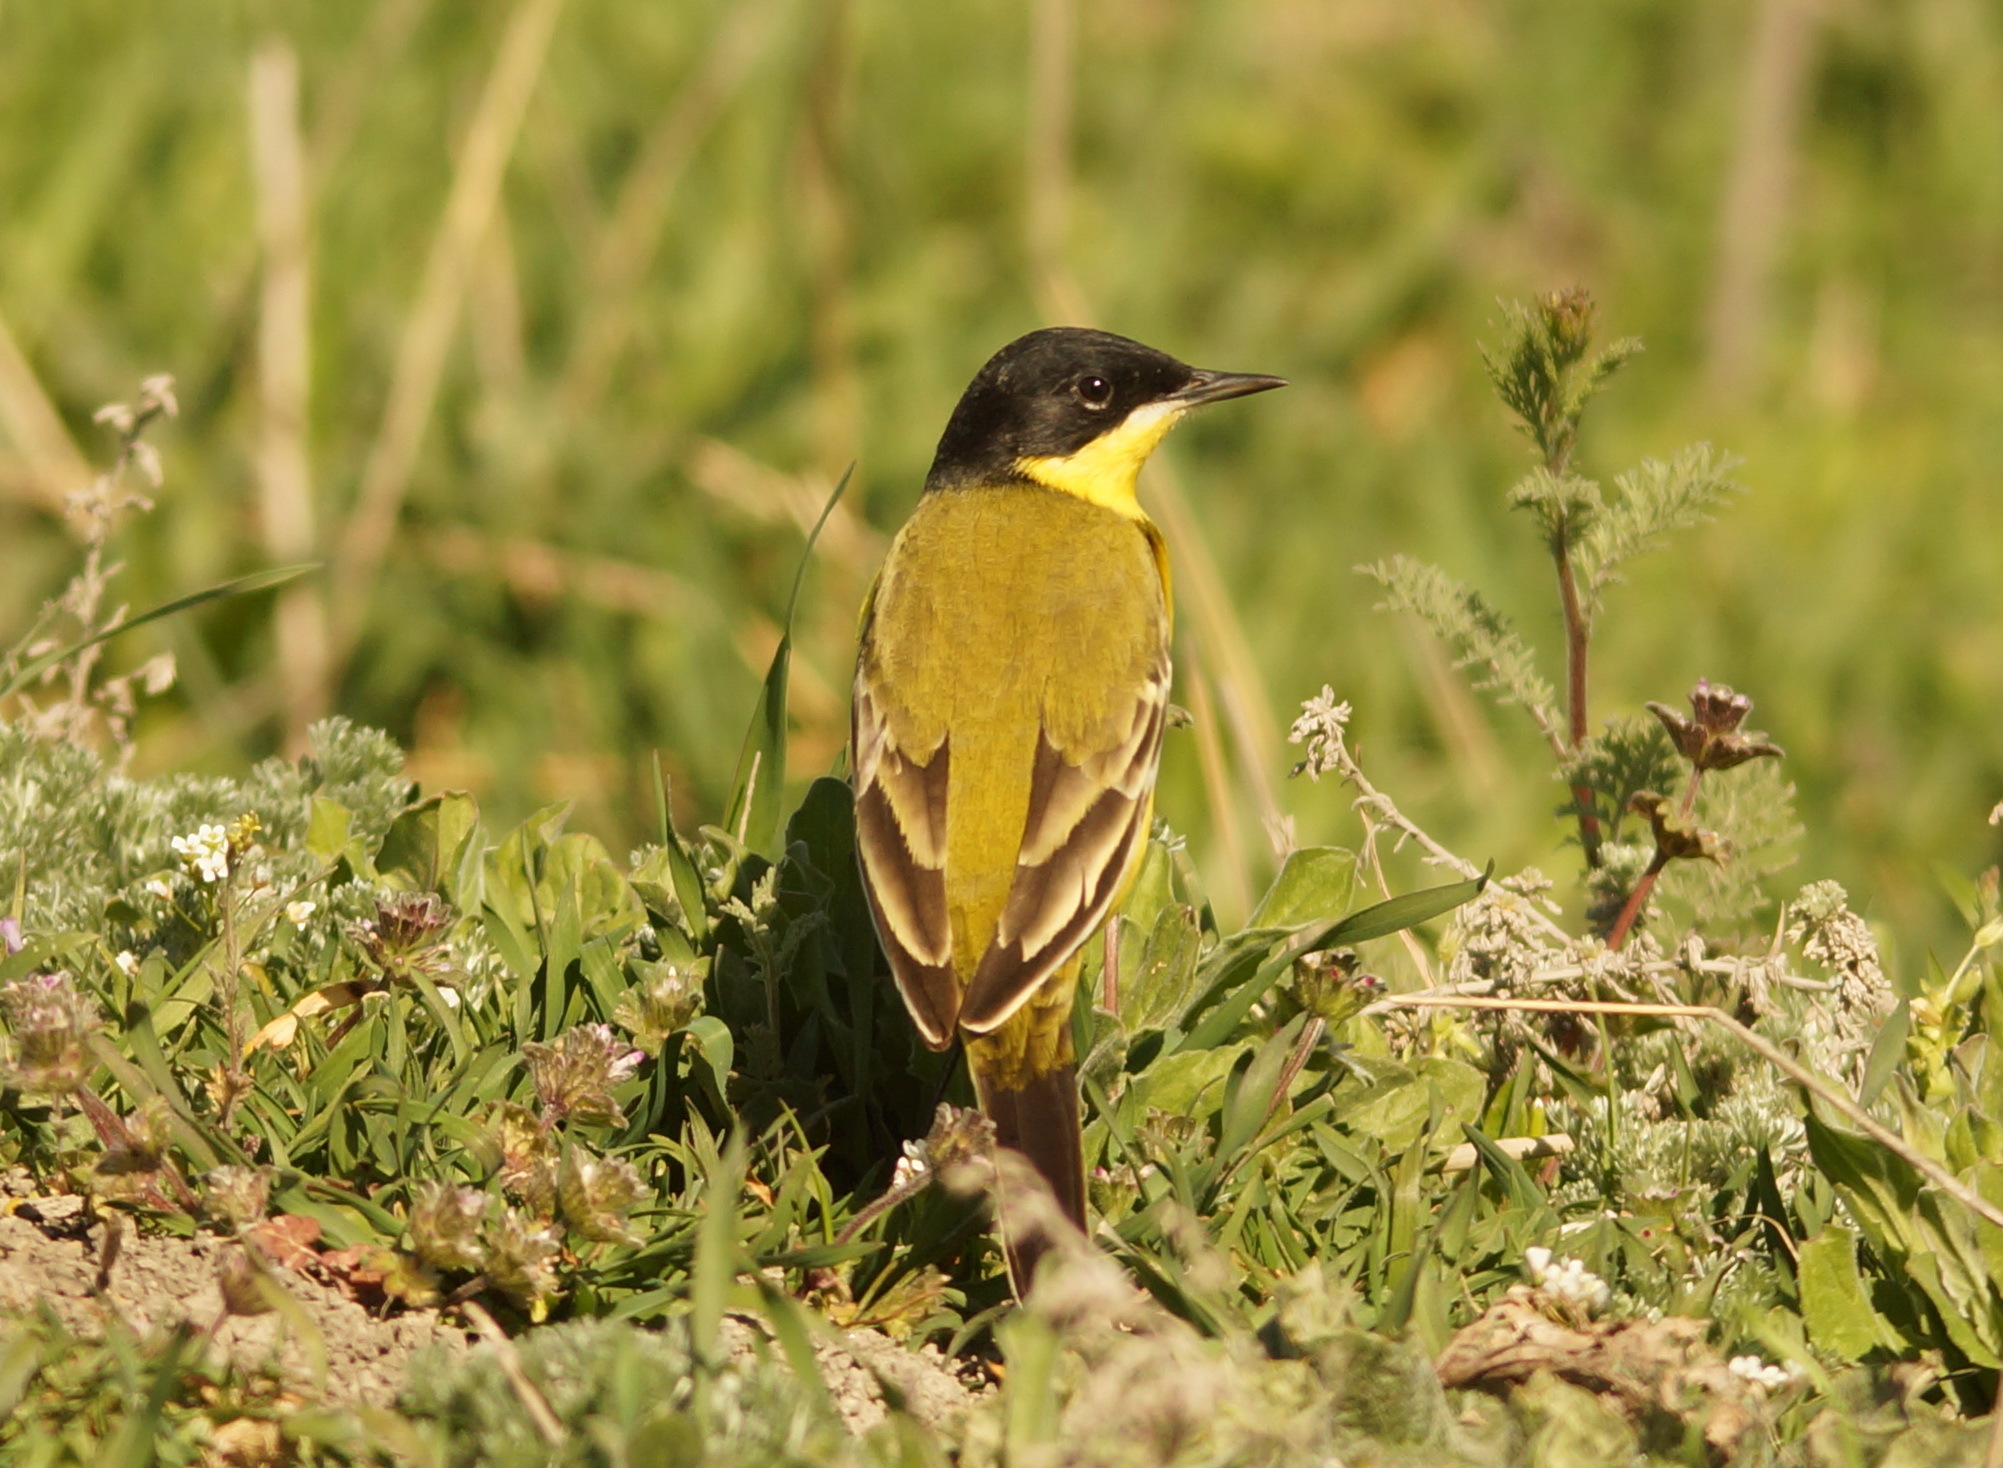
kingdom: Animalia
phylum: Chordata
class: Aves
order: Passeriformes
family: Motacillidae
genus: Motacilla
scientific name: Motacilla flava
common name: Western yellow wagtail
